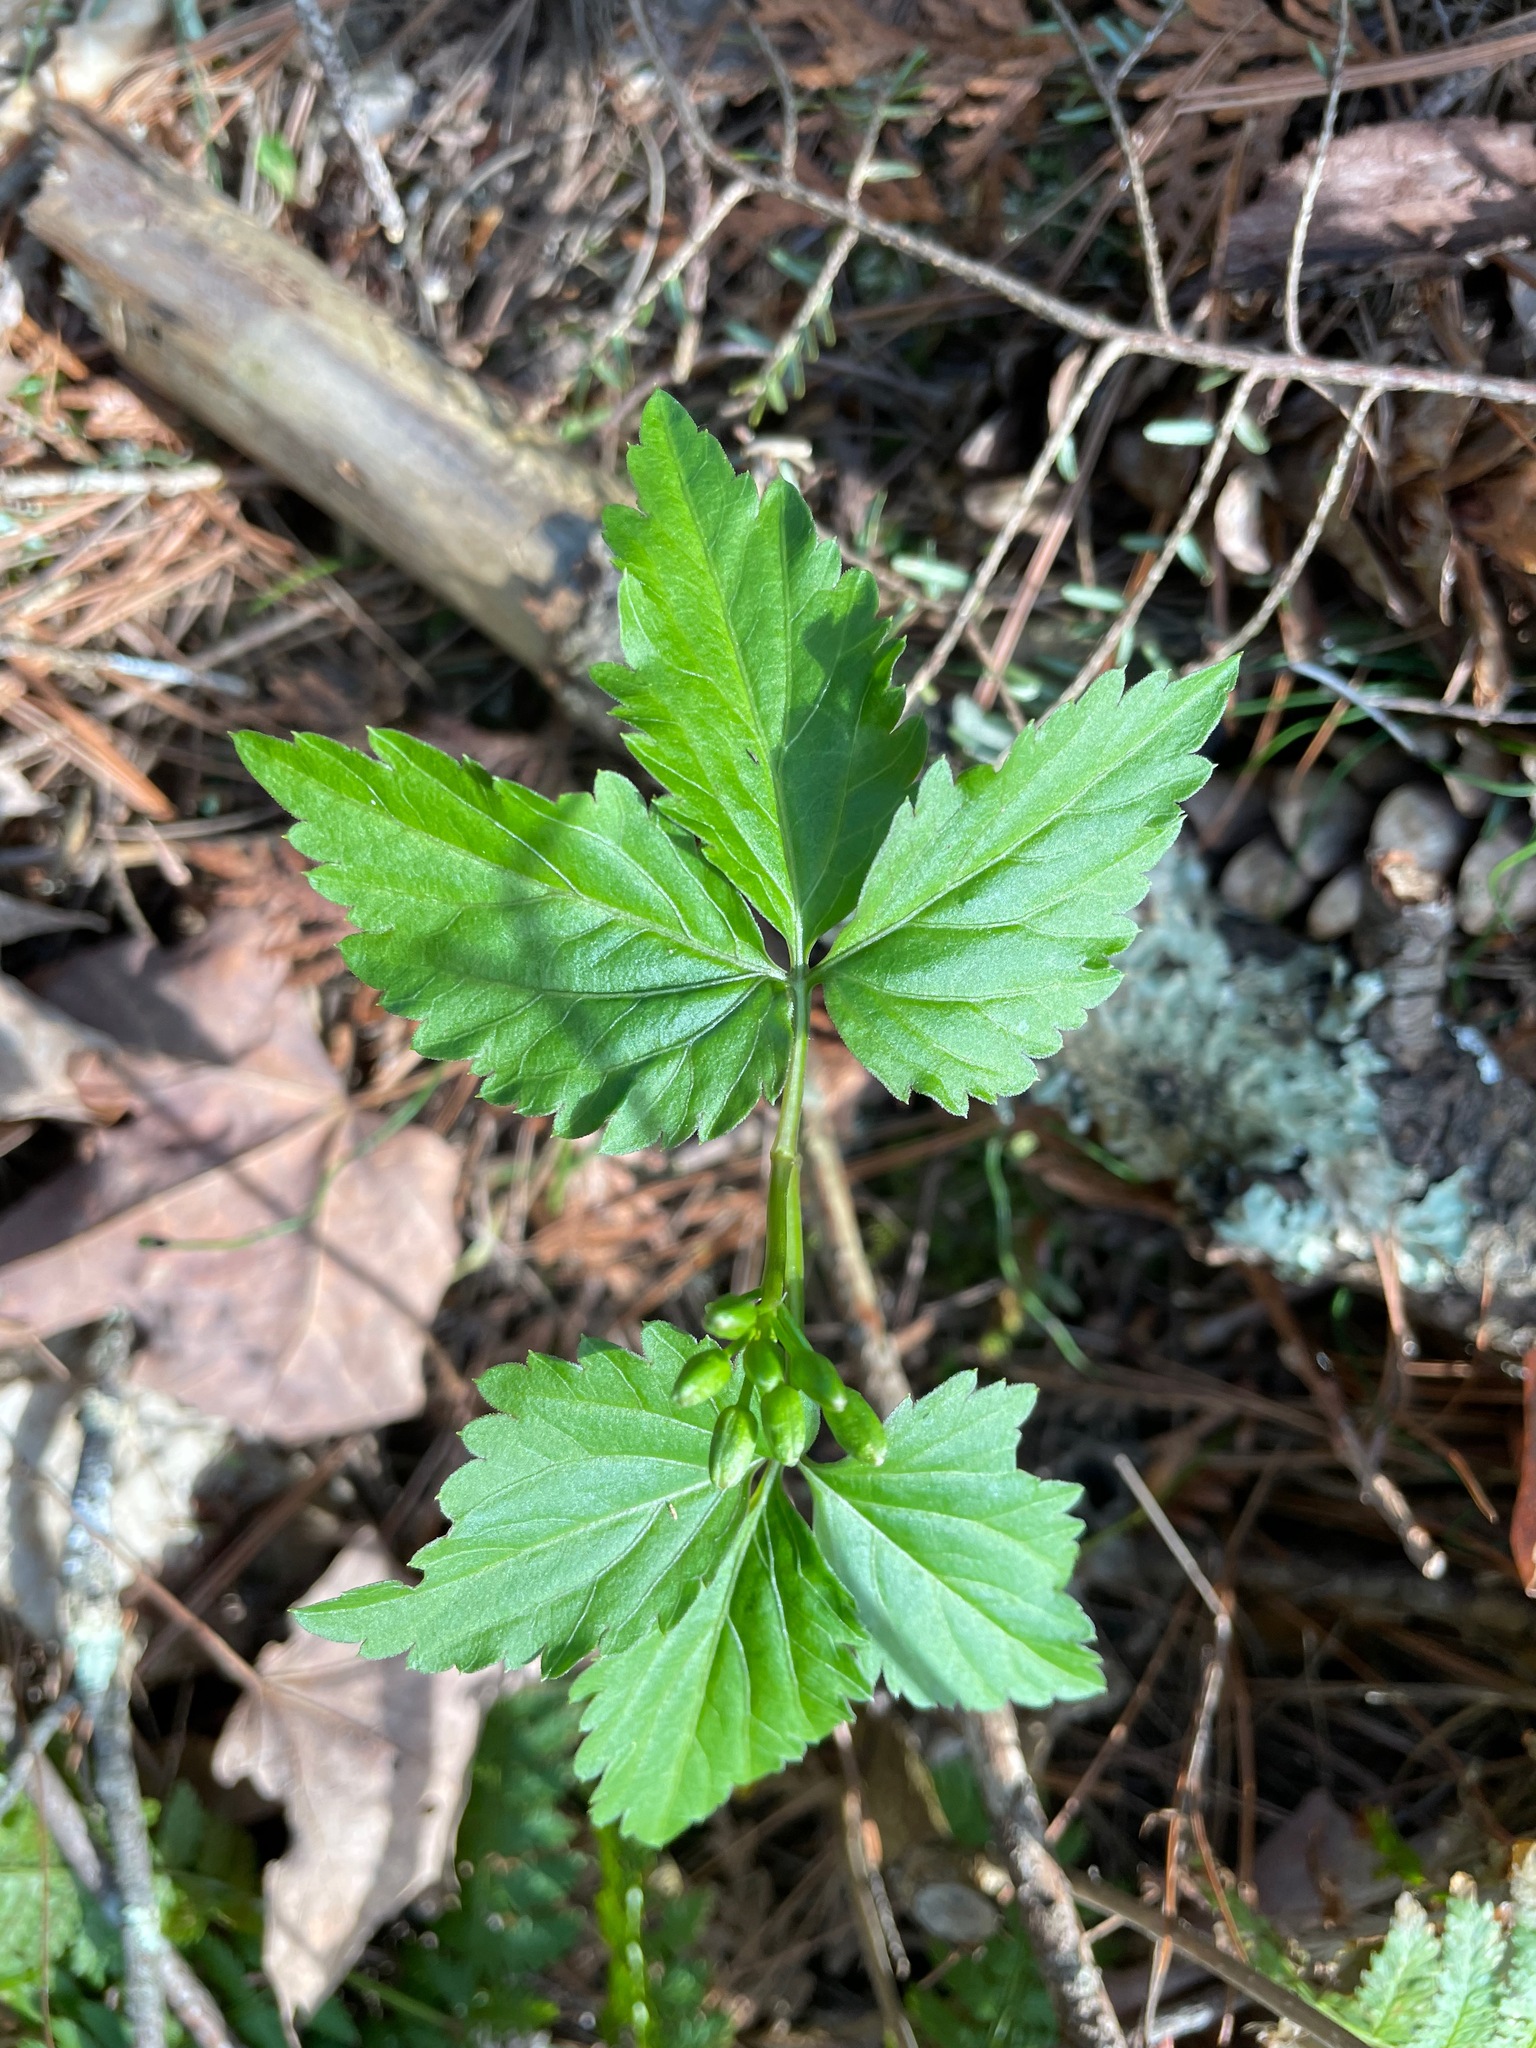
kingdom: Plantae
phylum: Tracheophyta
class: Magnoliopsida
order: Brassicales
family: Brassicaceae
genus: Cardamine
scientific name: Cardamine diphylla
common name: Broad-leaved toothwort
